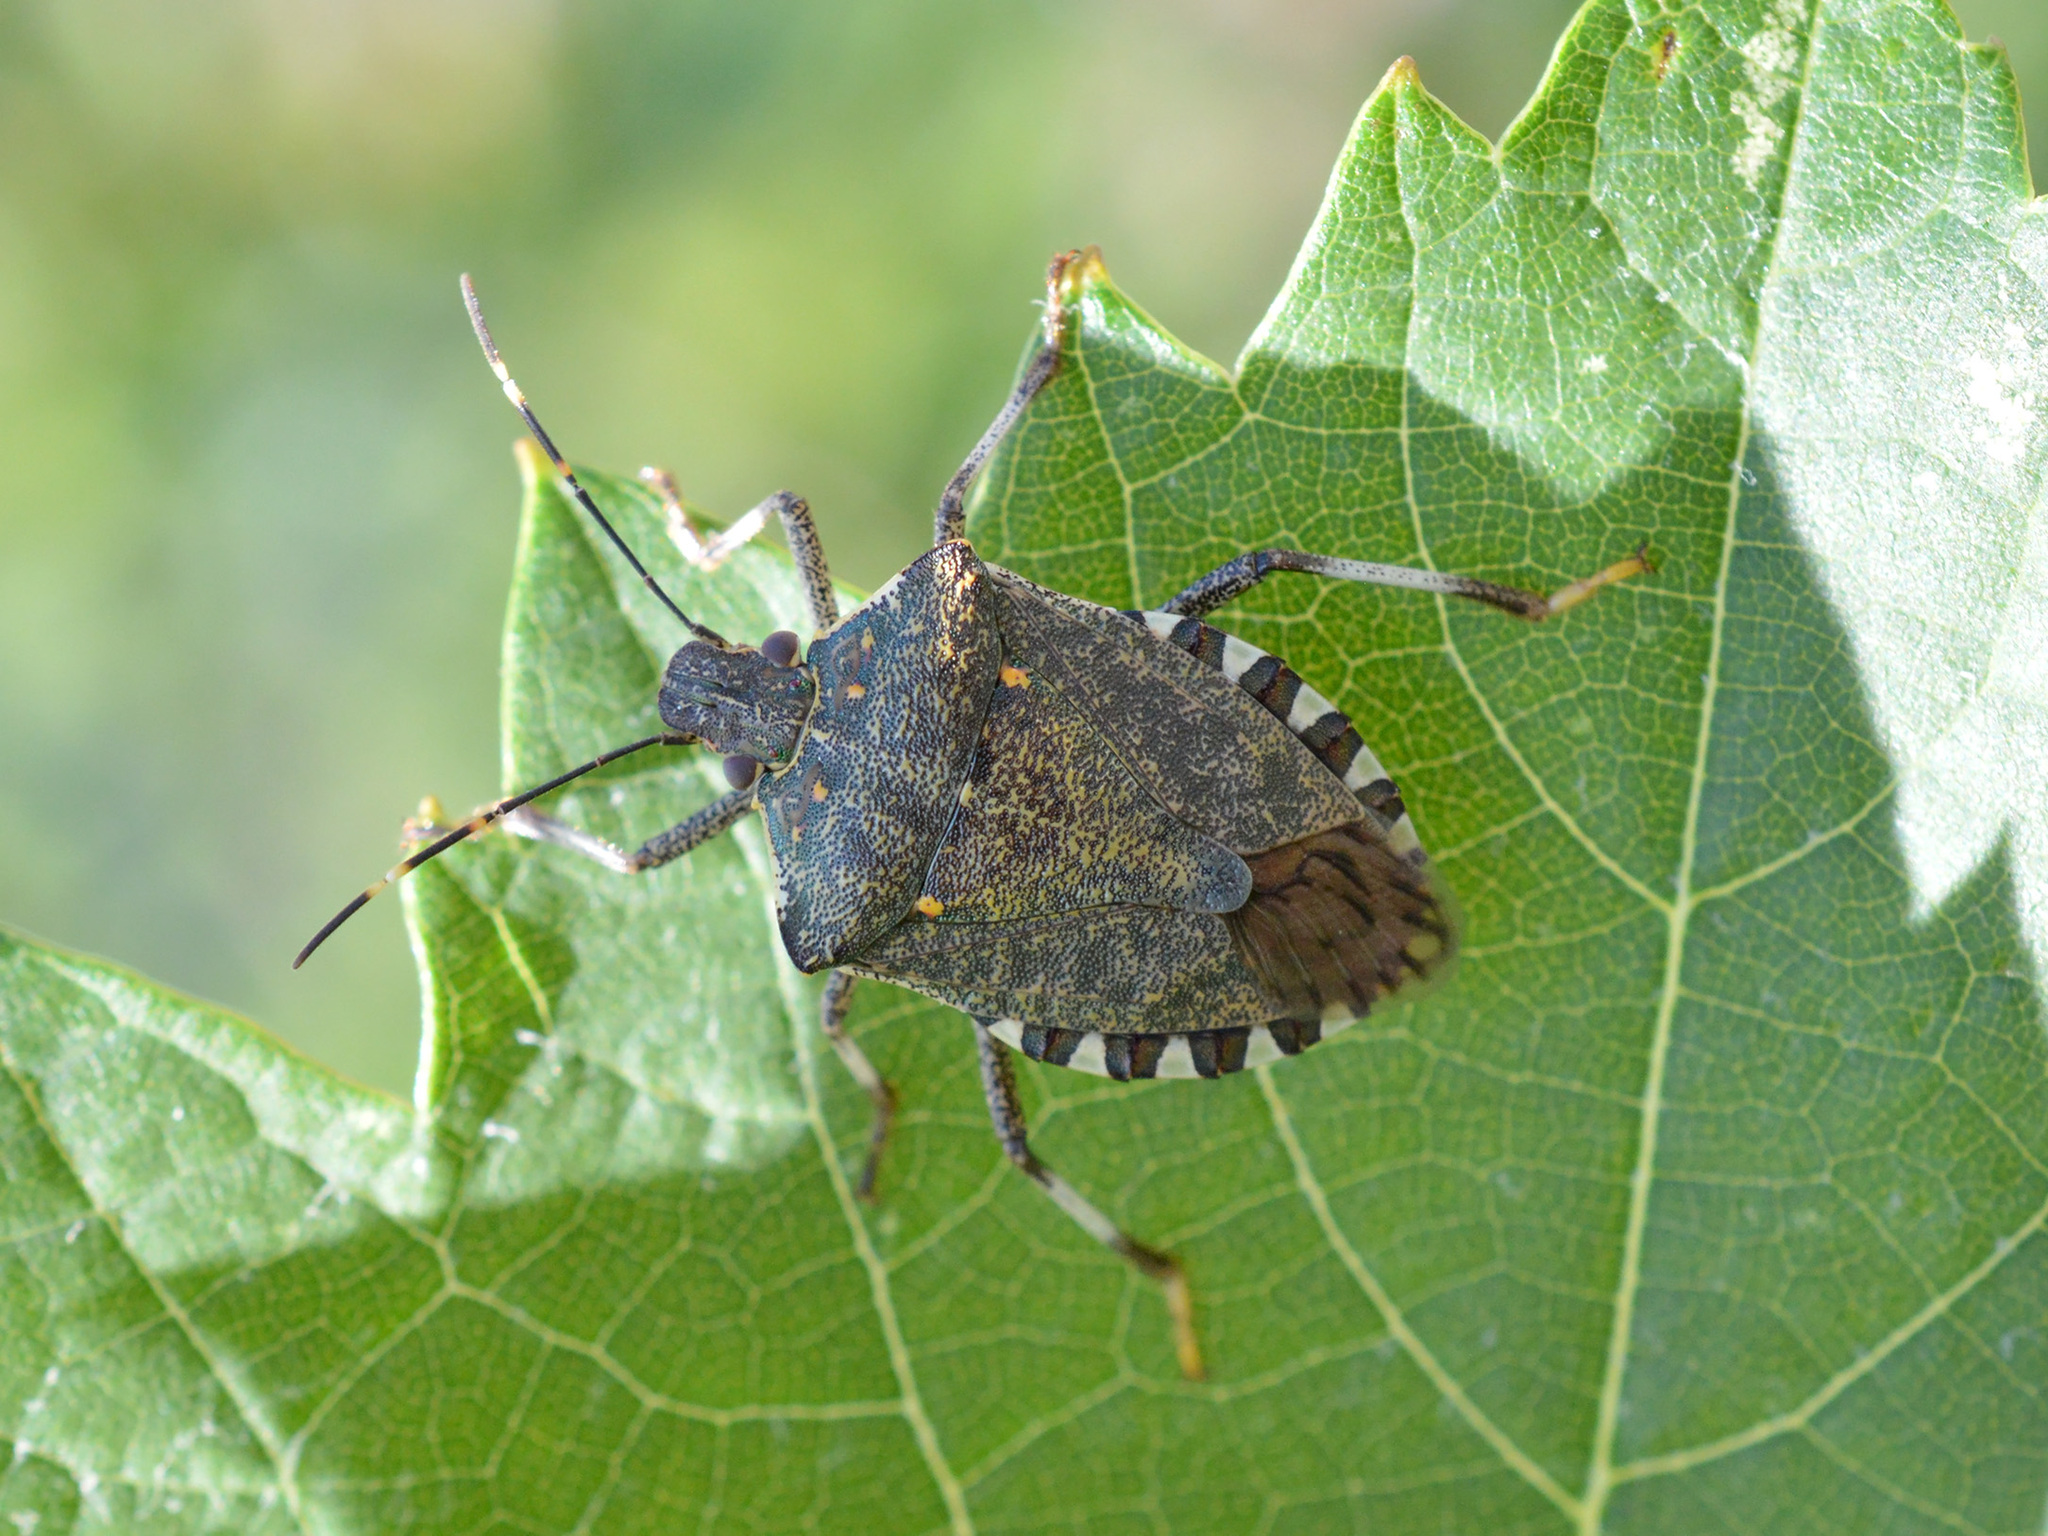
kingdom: Animalia
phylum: Arthropoda
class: Insecta
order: Hemiptera
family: Pentatomidae
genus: Halyomorpha
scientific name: Halyomorpha halys
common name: Brown marmorated stink bug
